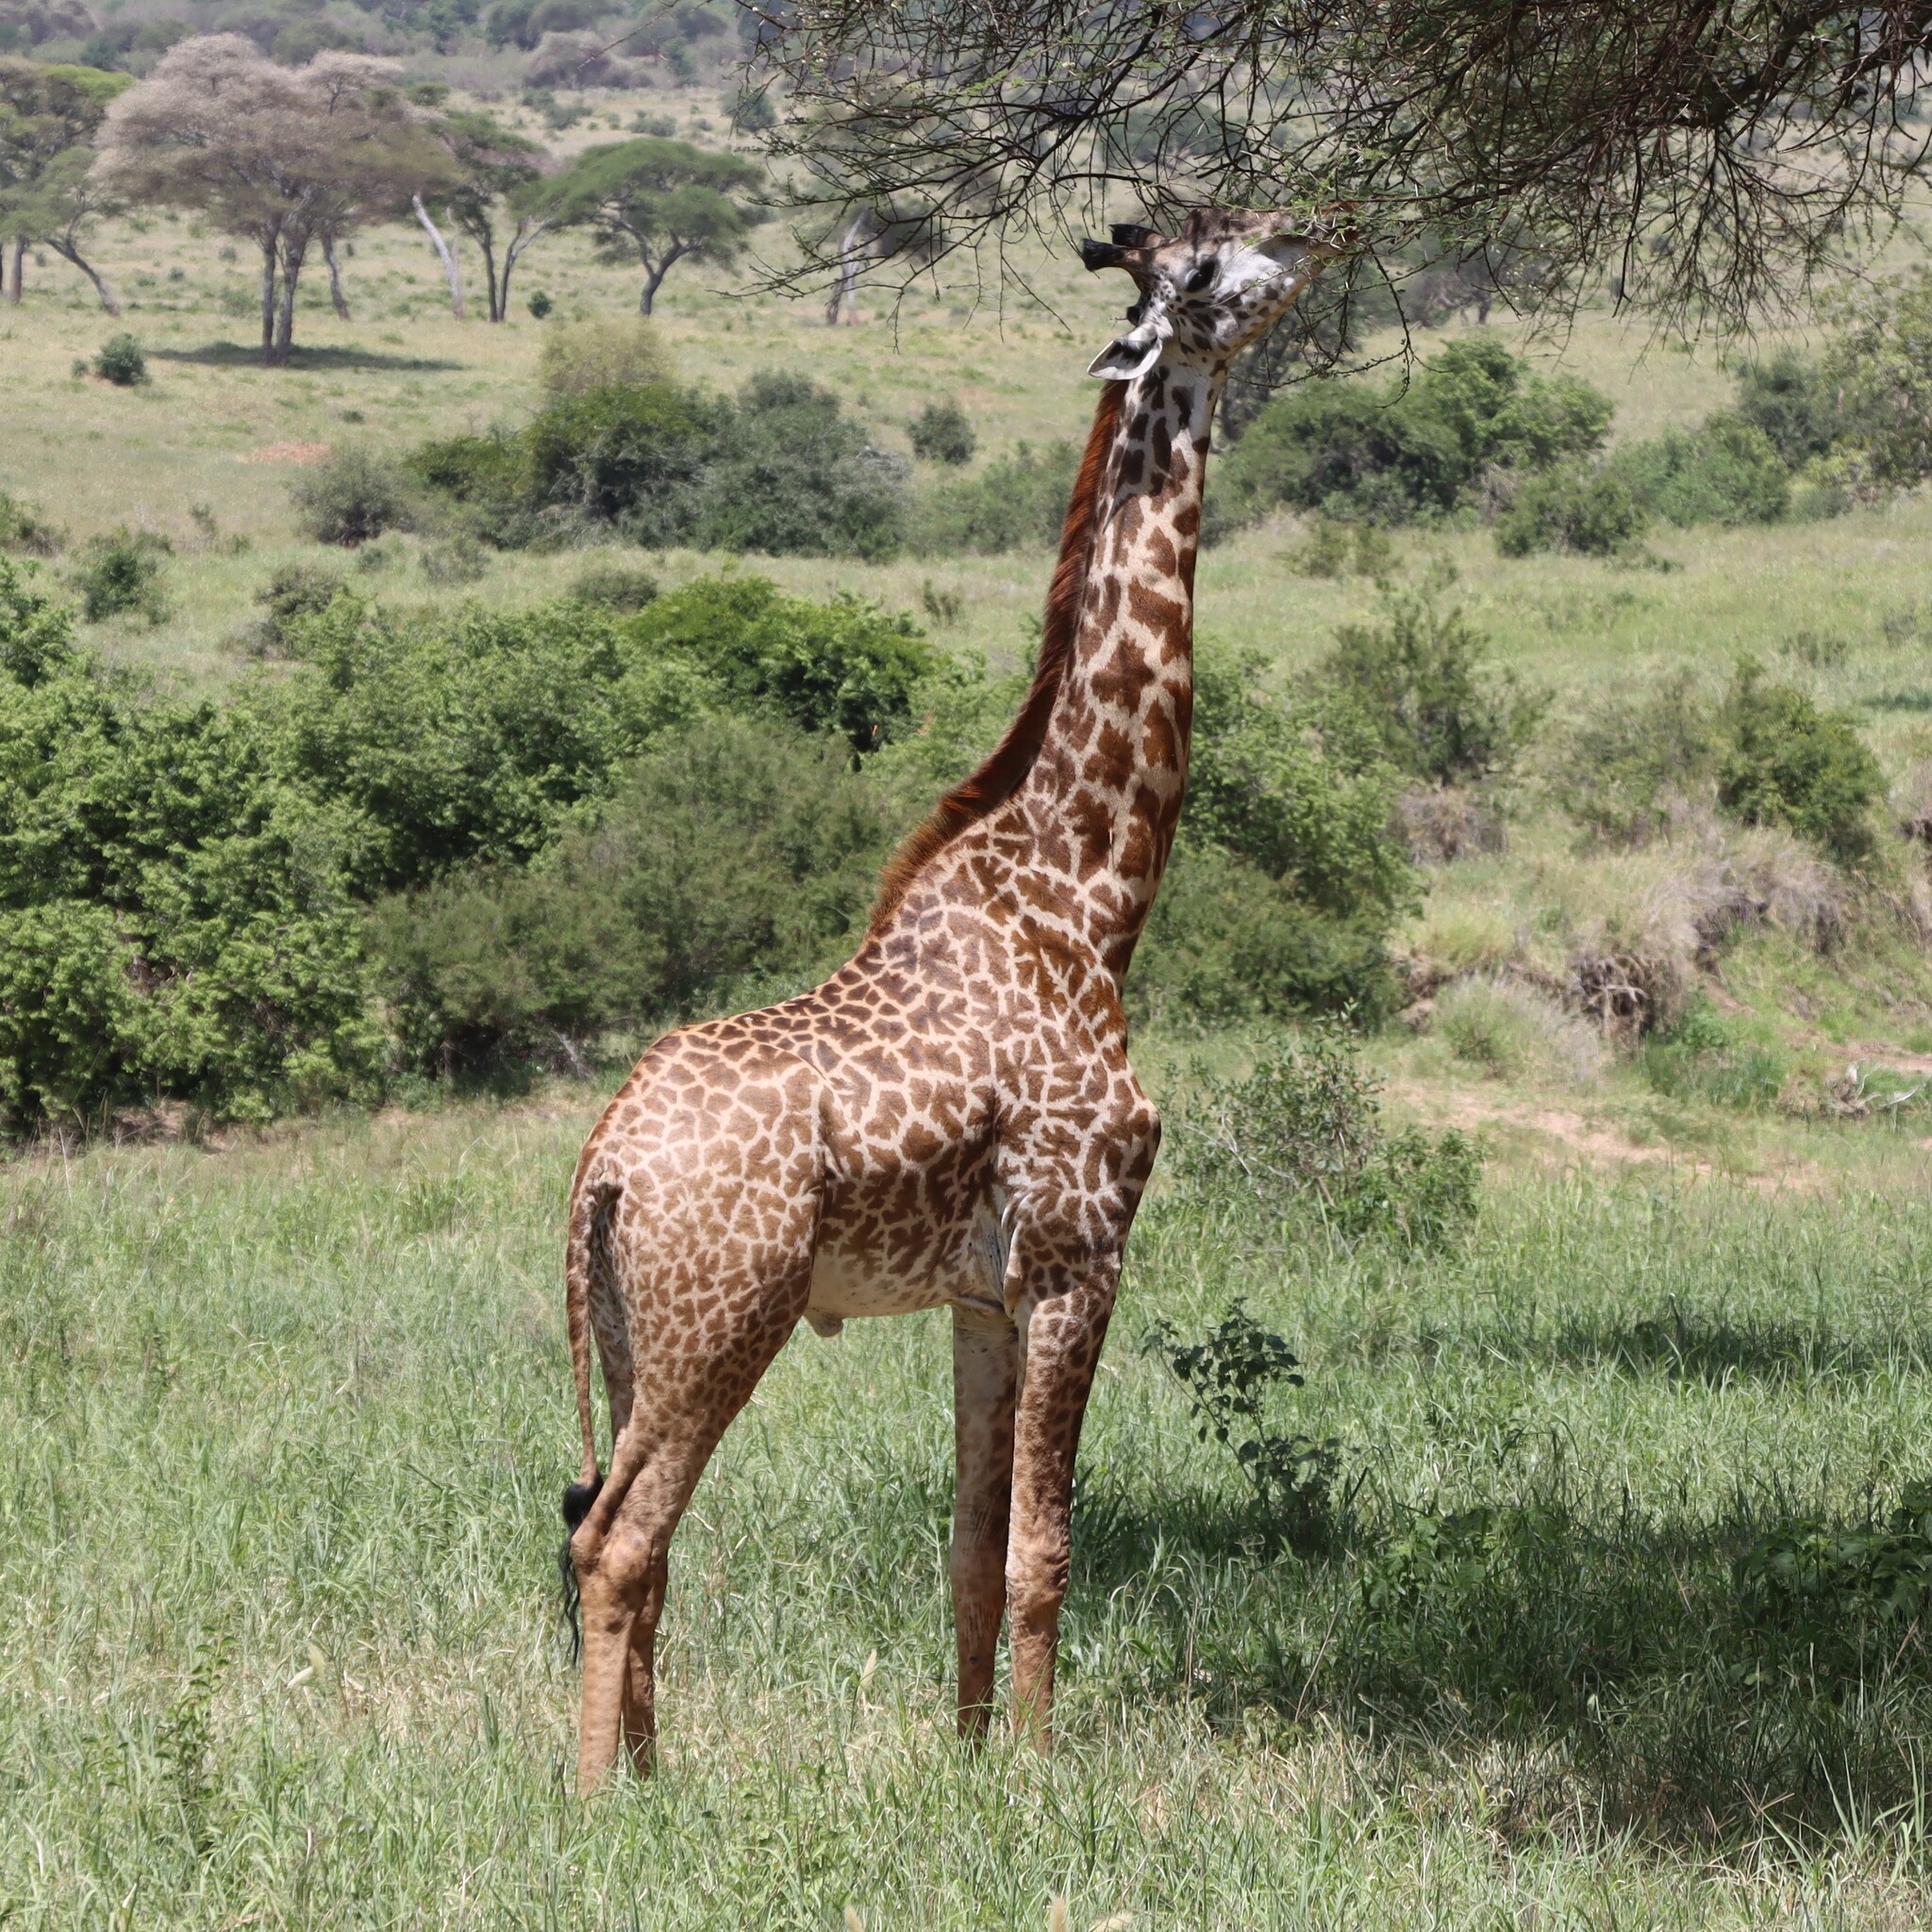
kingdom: Animalia
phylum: Chordata
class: Mammalia
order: Artiodactyla
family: Giraffidae
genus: Giraffa
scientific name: Giraffa tippelskirchi
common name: Masai giraffe
